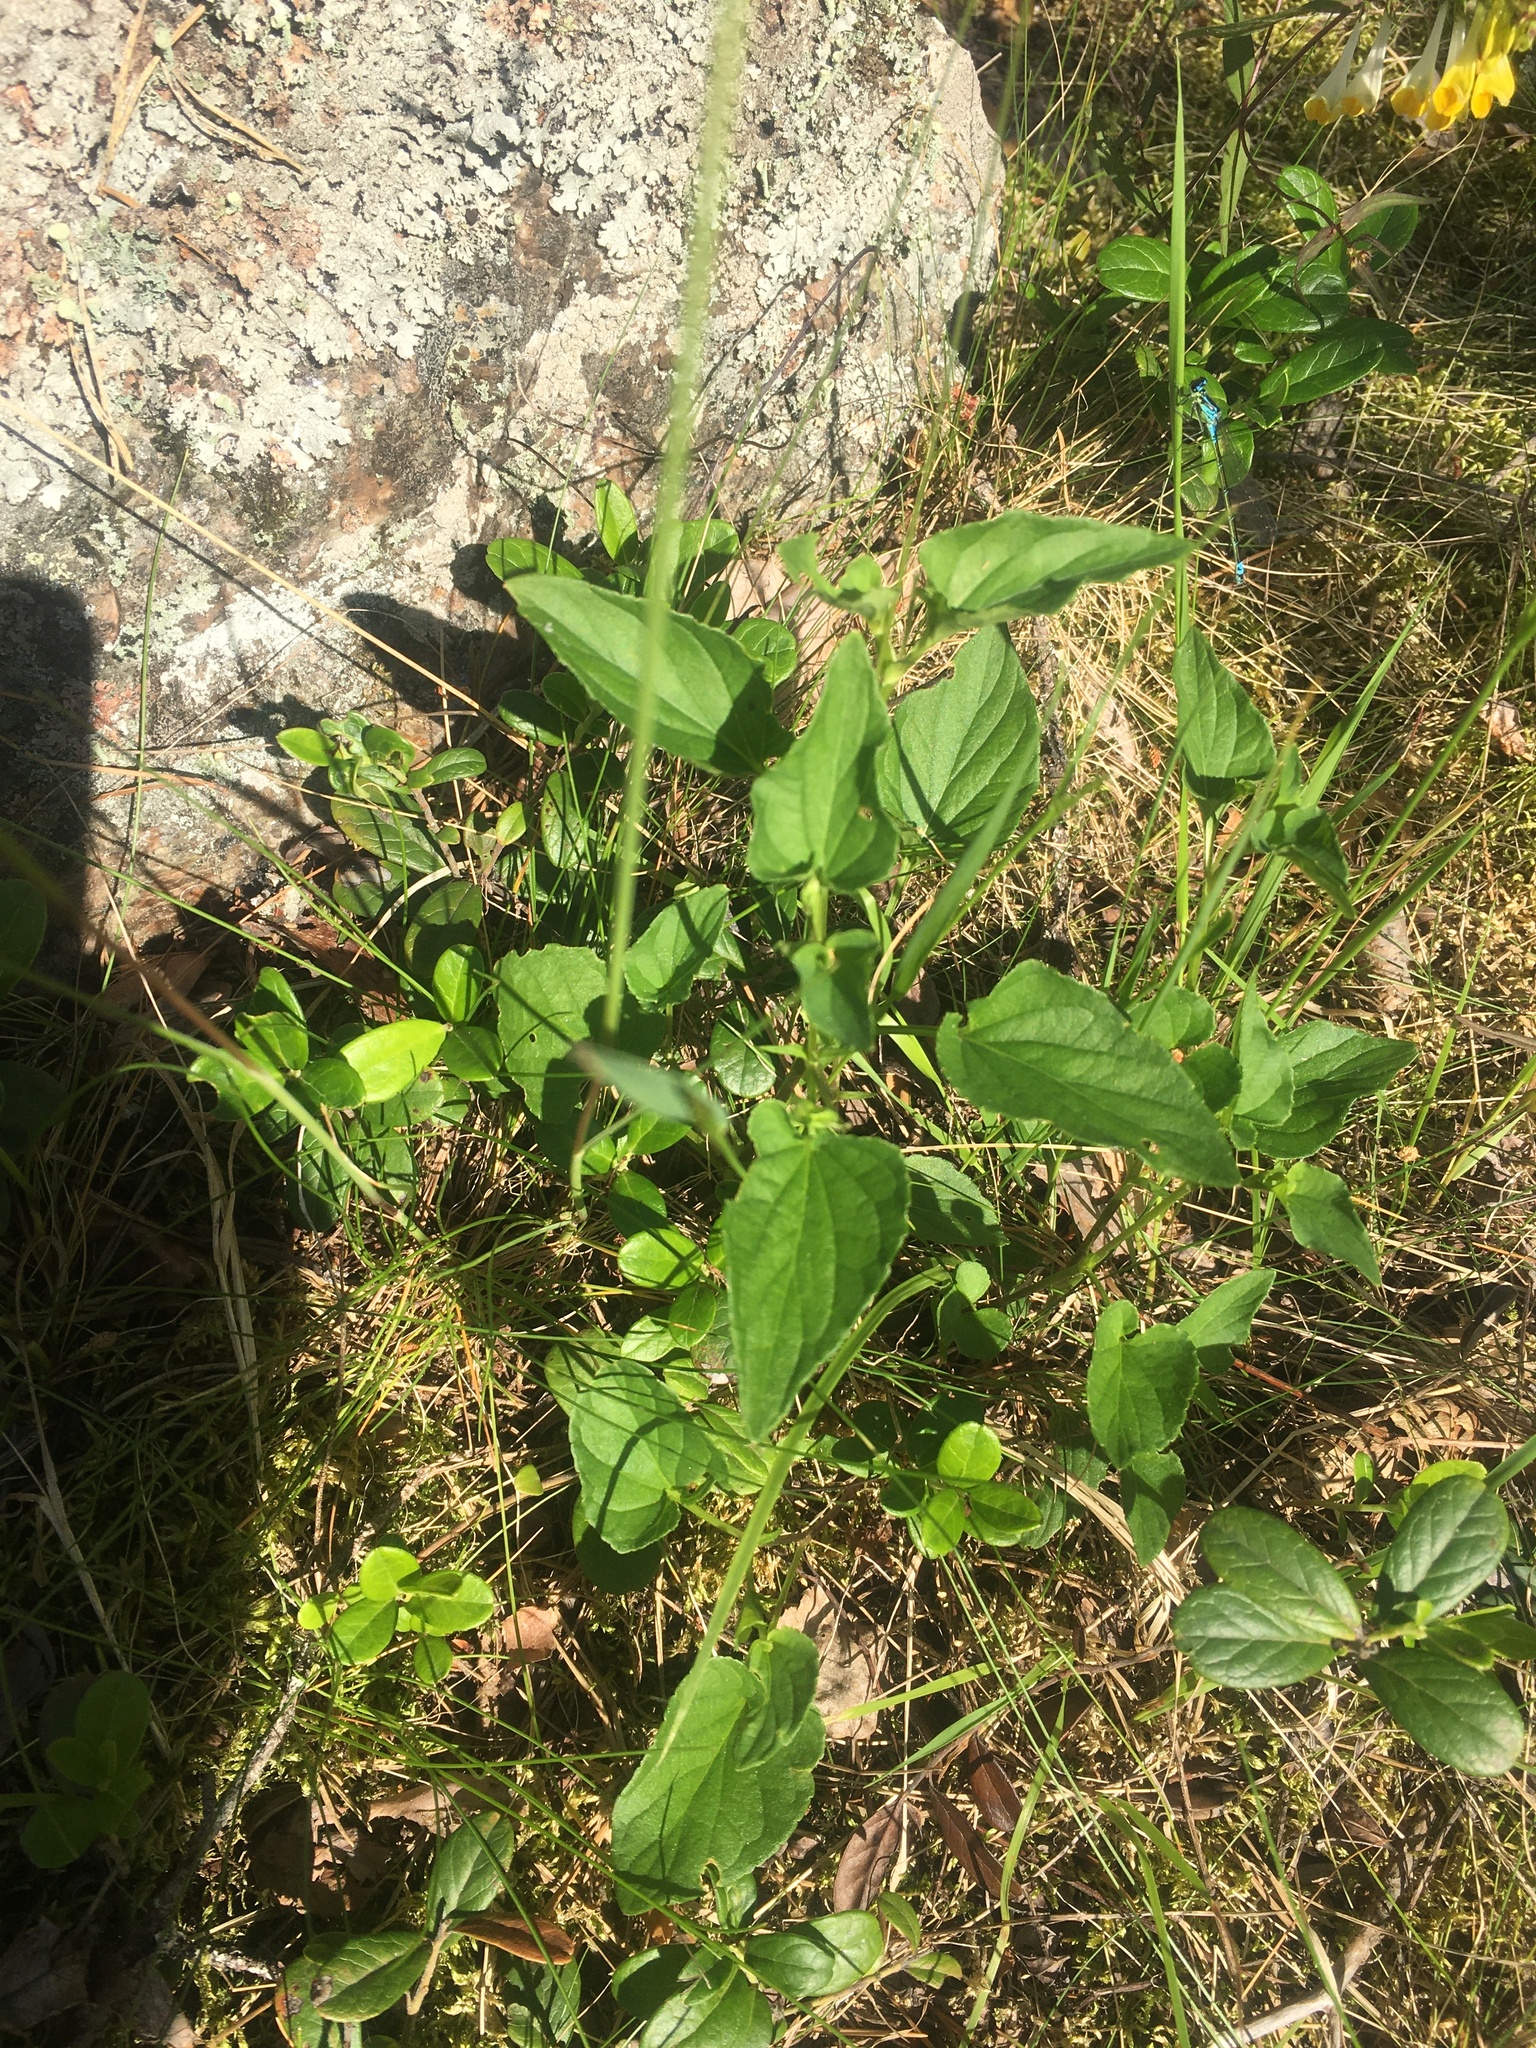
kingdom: Plantae
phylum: Tracheophyta
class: Magnoliopsida
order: Malpighiales
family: Violaceae
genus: Viola
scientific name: Viola canina
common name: Heath dog-violet
